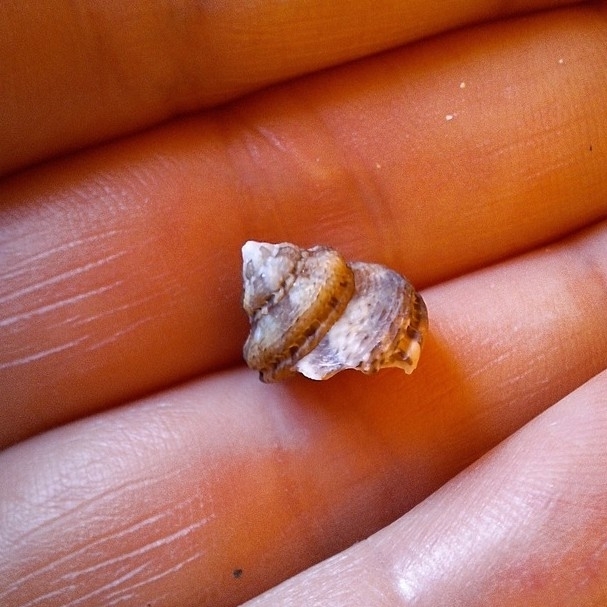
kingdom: Animalia
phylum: Mollusca
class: Gastropoda
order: Trochida
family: Trochidae
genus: Gibbula
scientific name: Gibbula fanulum
